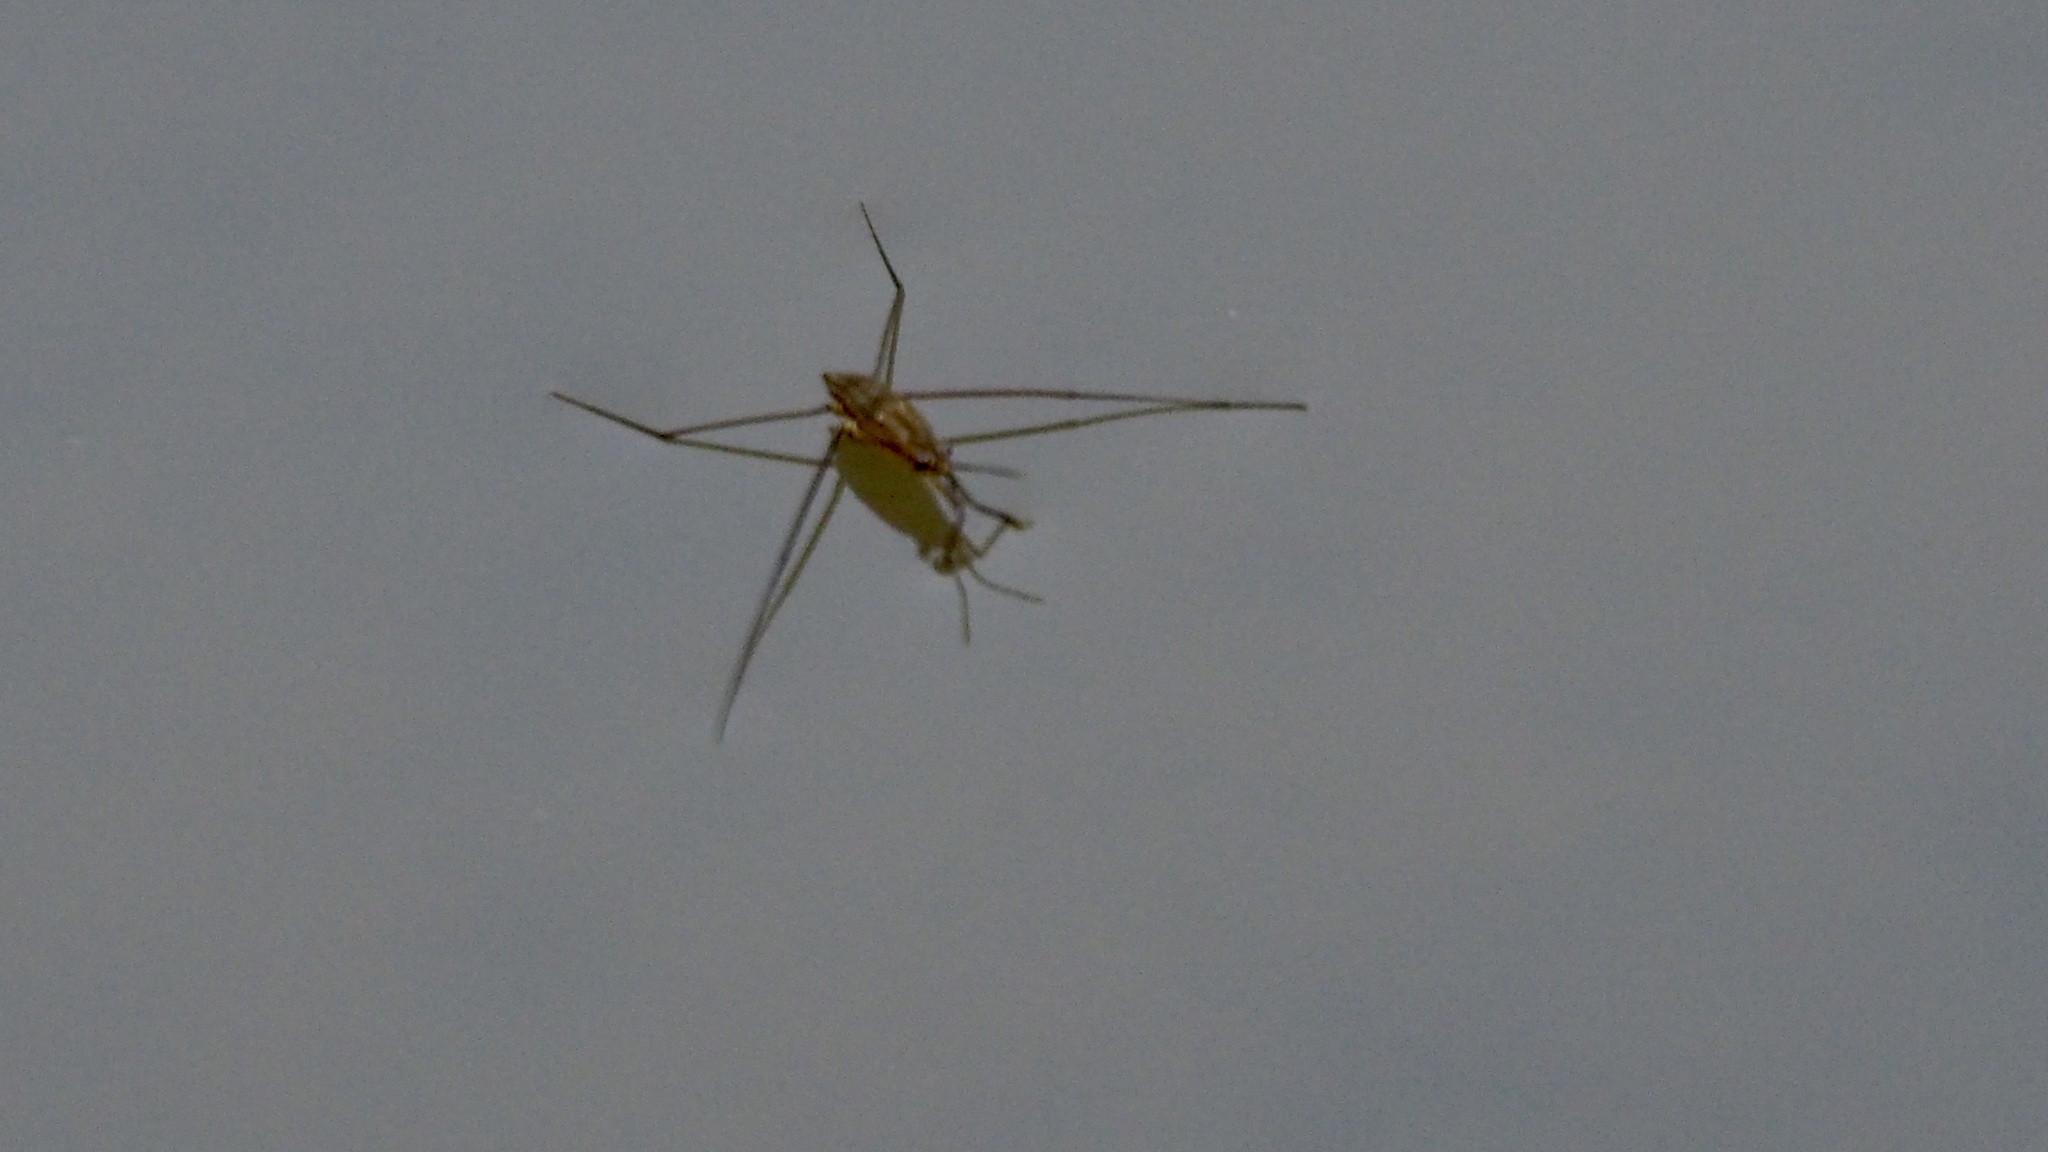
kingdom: Animalia
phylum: Arthropoda
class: Insecta
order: Hemiptera
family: Gerridae
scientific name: Gerridae
